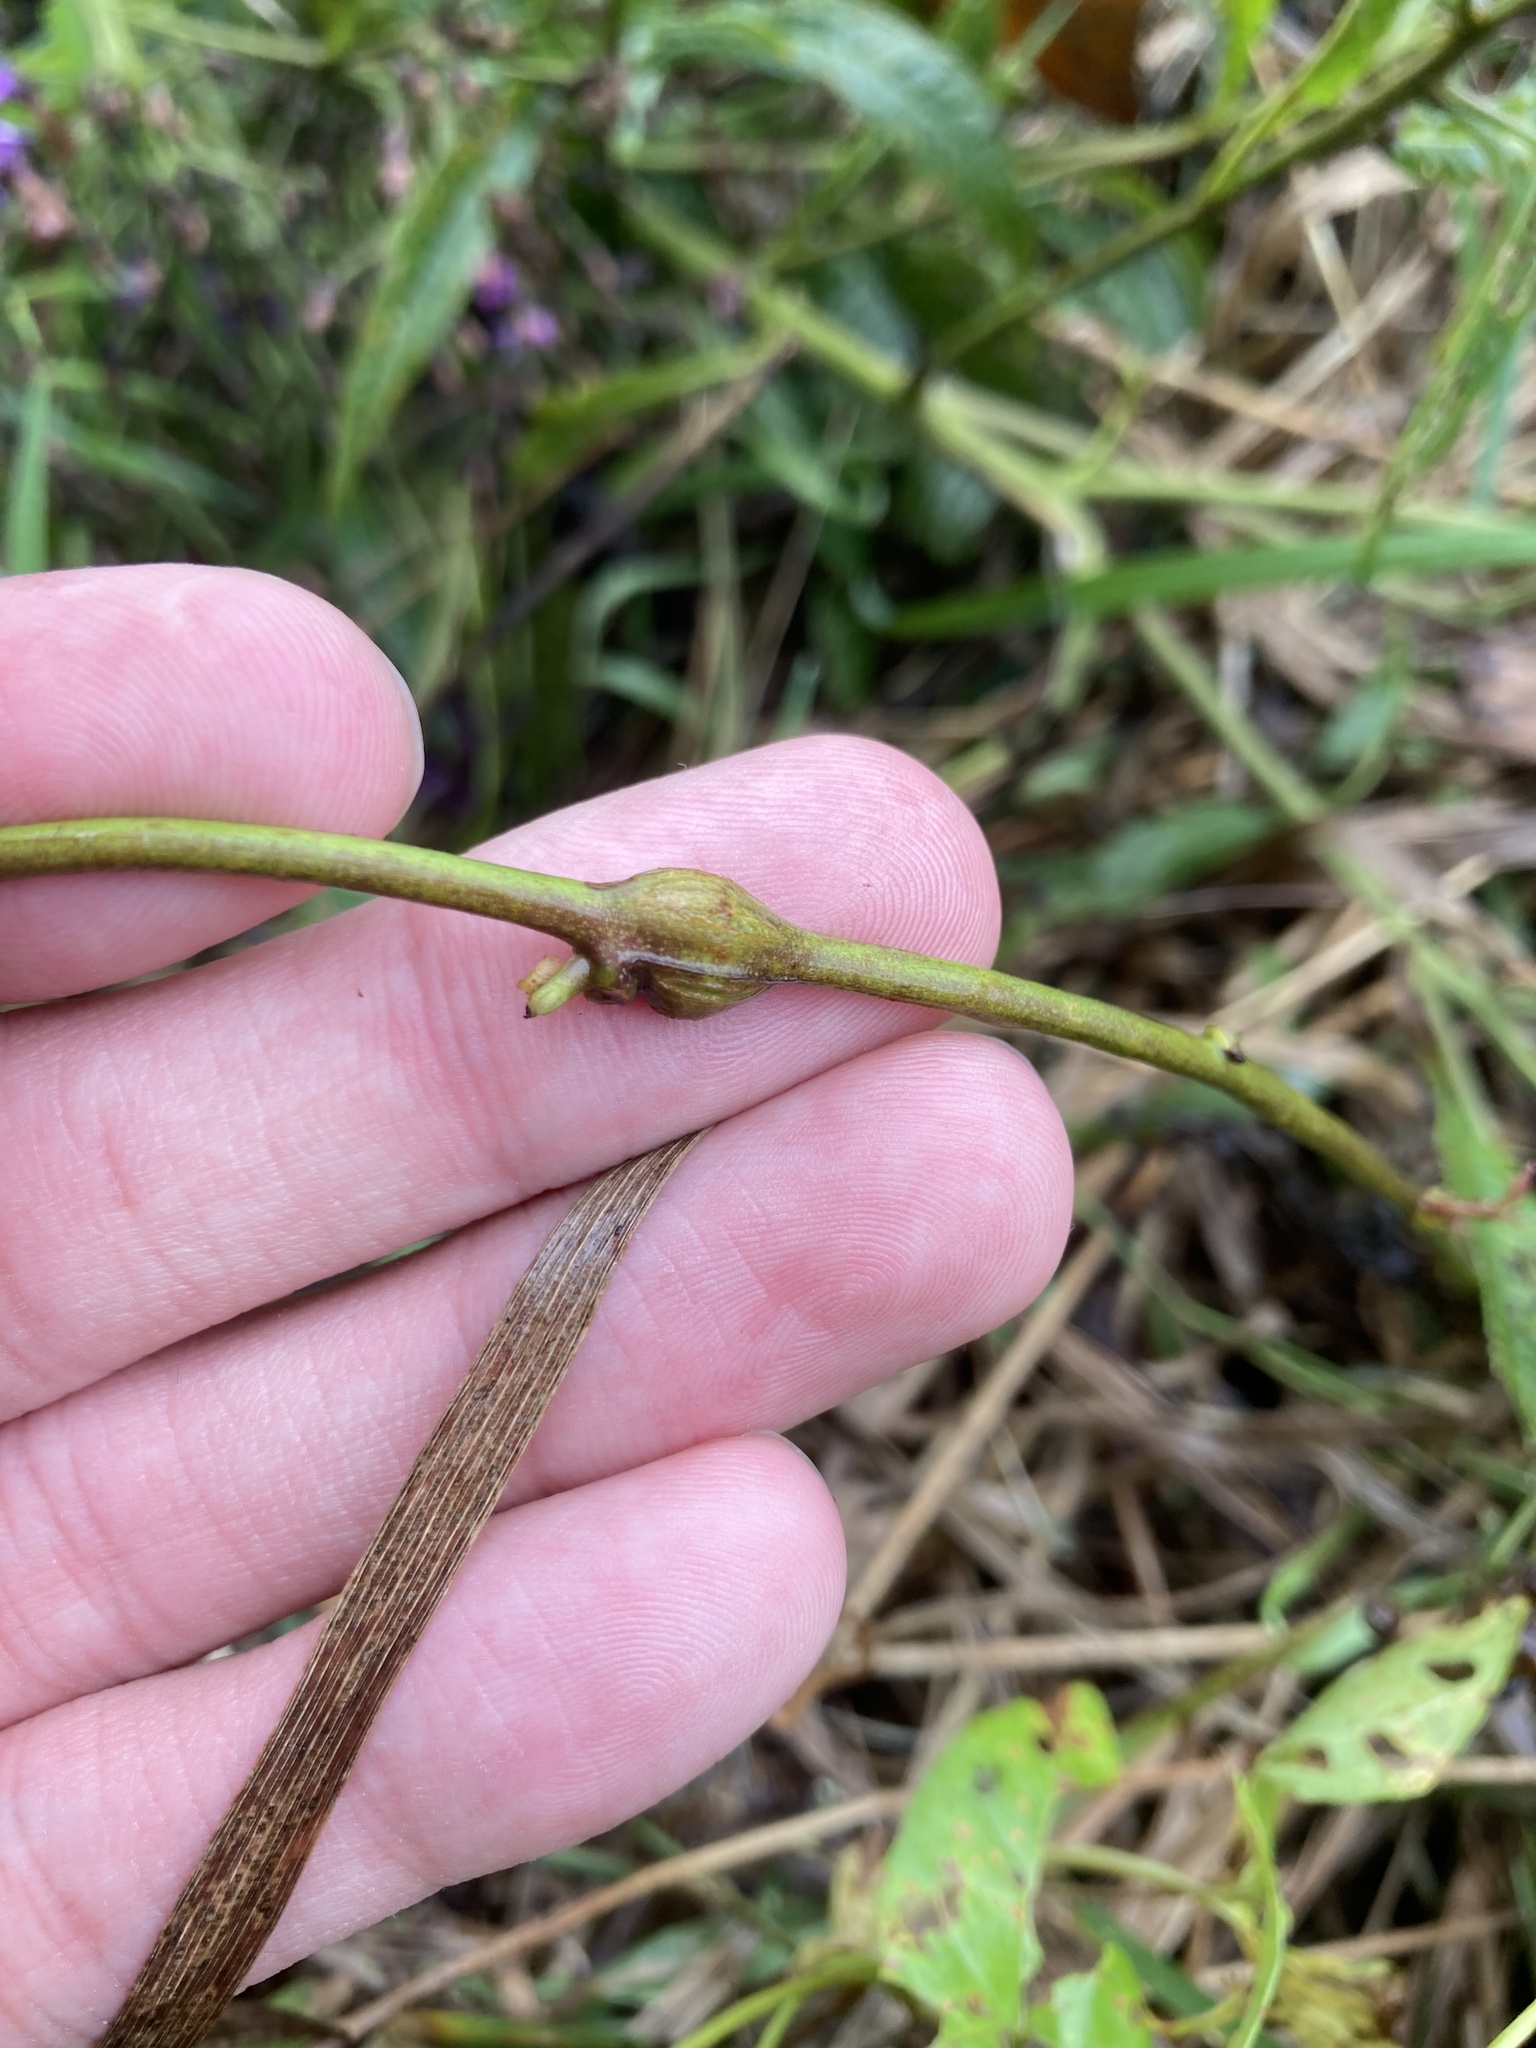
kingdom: Animalia
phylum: Arthropoda
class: Insecta
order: Diptera
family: Cecidomyiidae
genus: Neolasioptera
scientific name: Neolasioptera convolvuli
